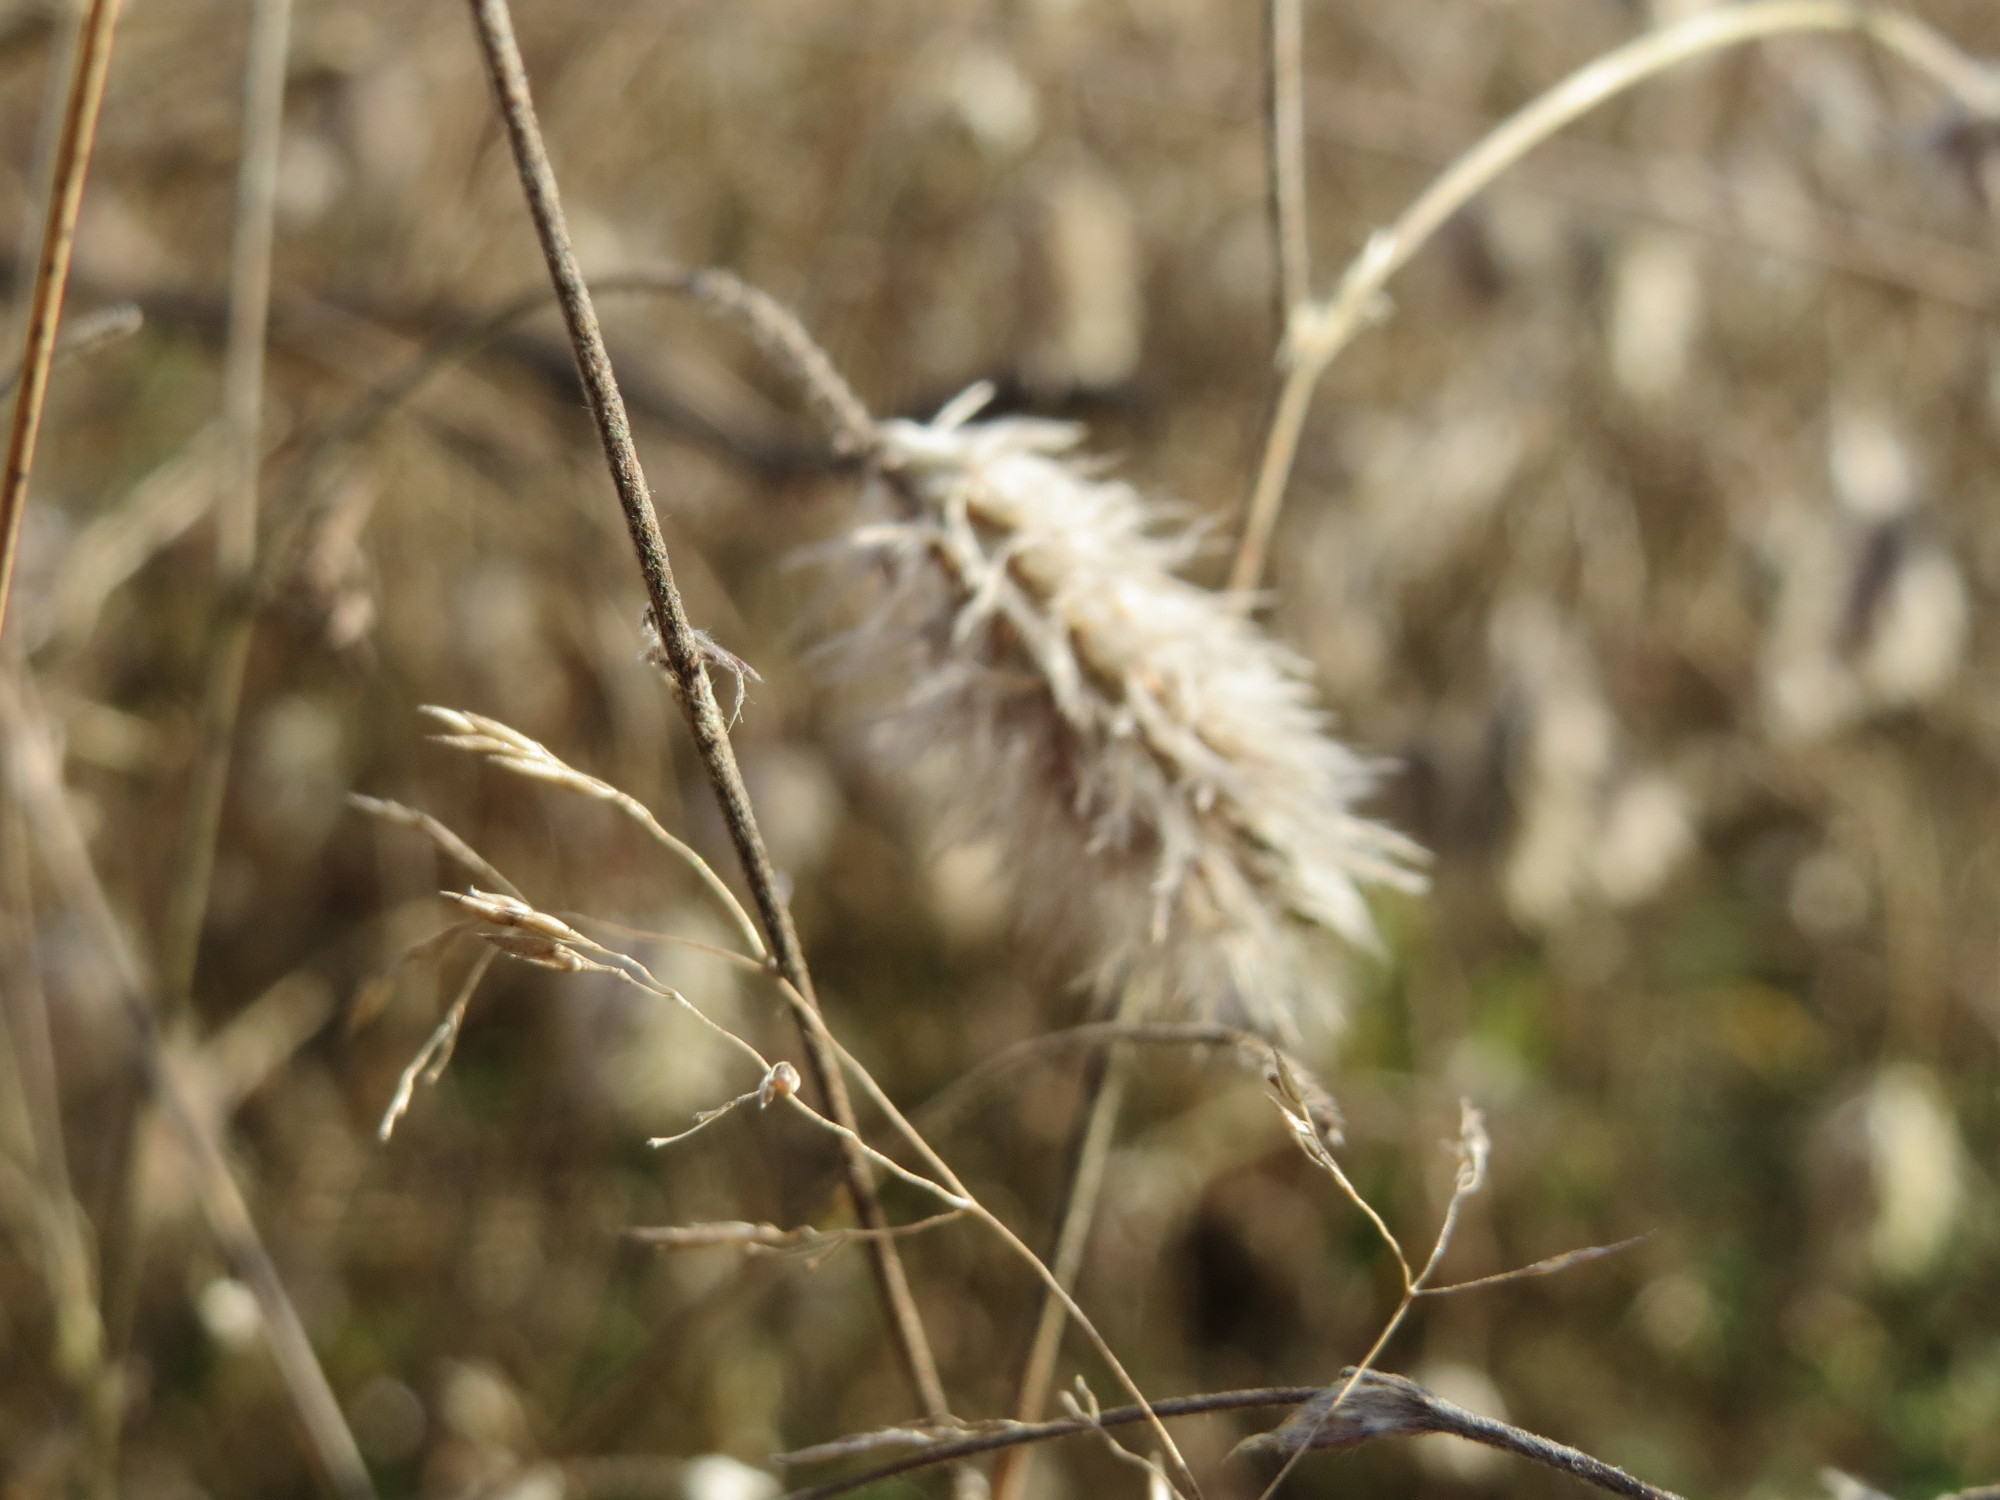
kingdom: Plantae
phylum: Tracheophyta
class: Magnoliopsida
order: Fabales
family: Fabaceae
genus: Trifolium
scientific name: Trifolium arvense
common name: Hare's-foot clover
